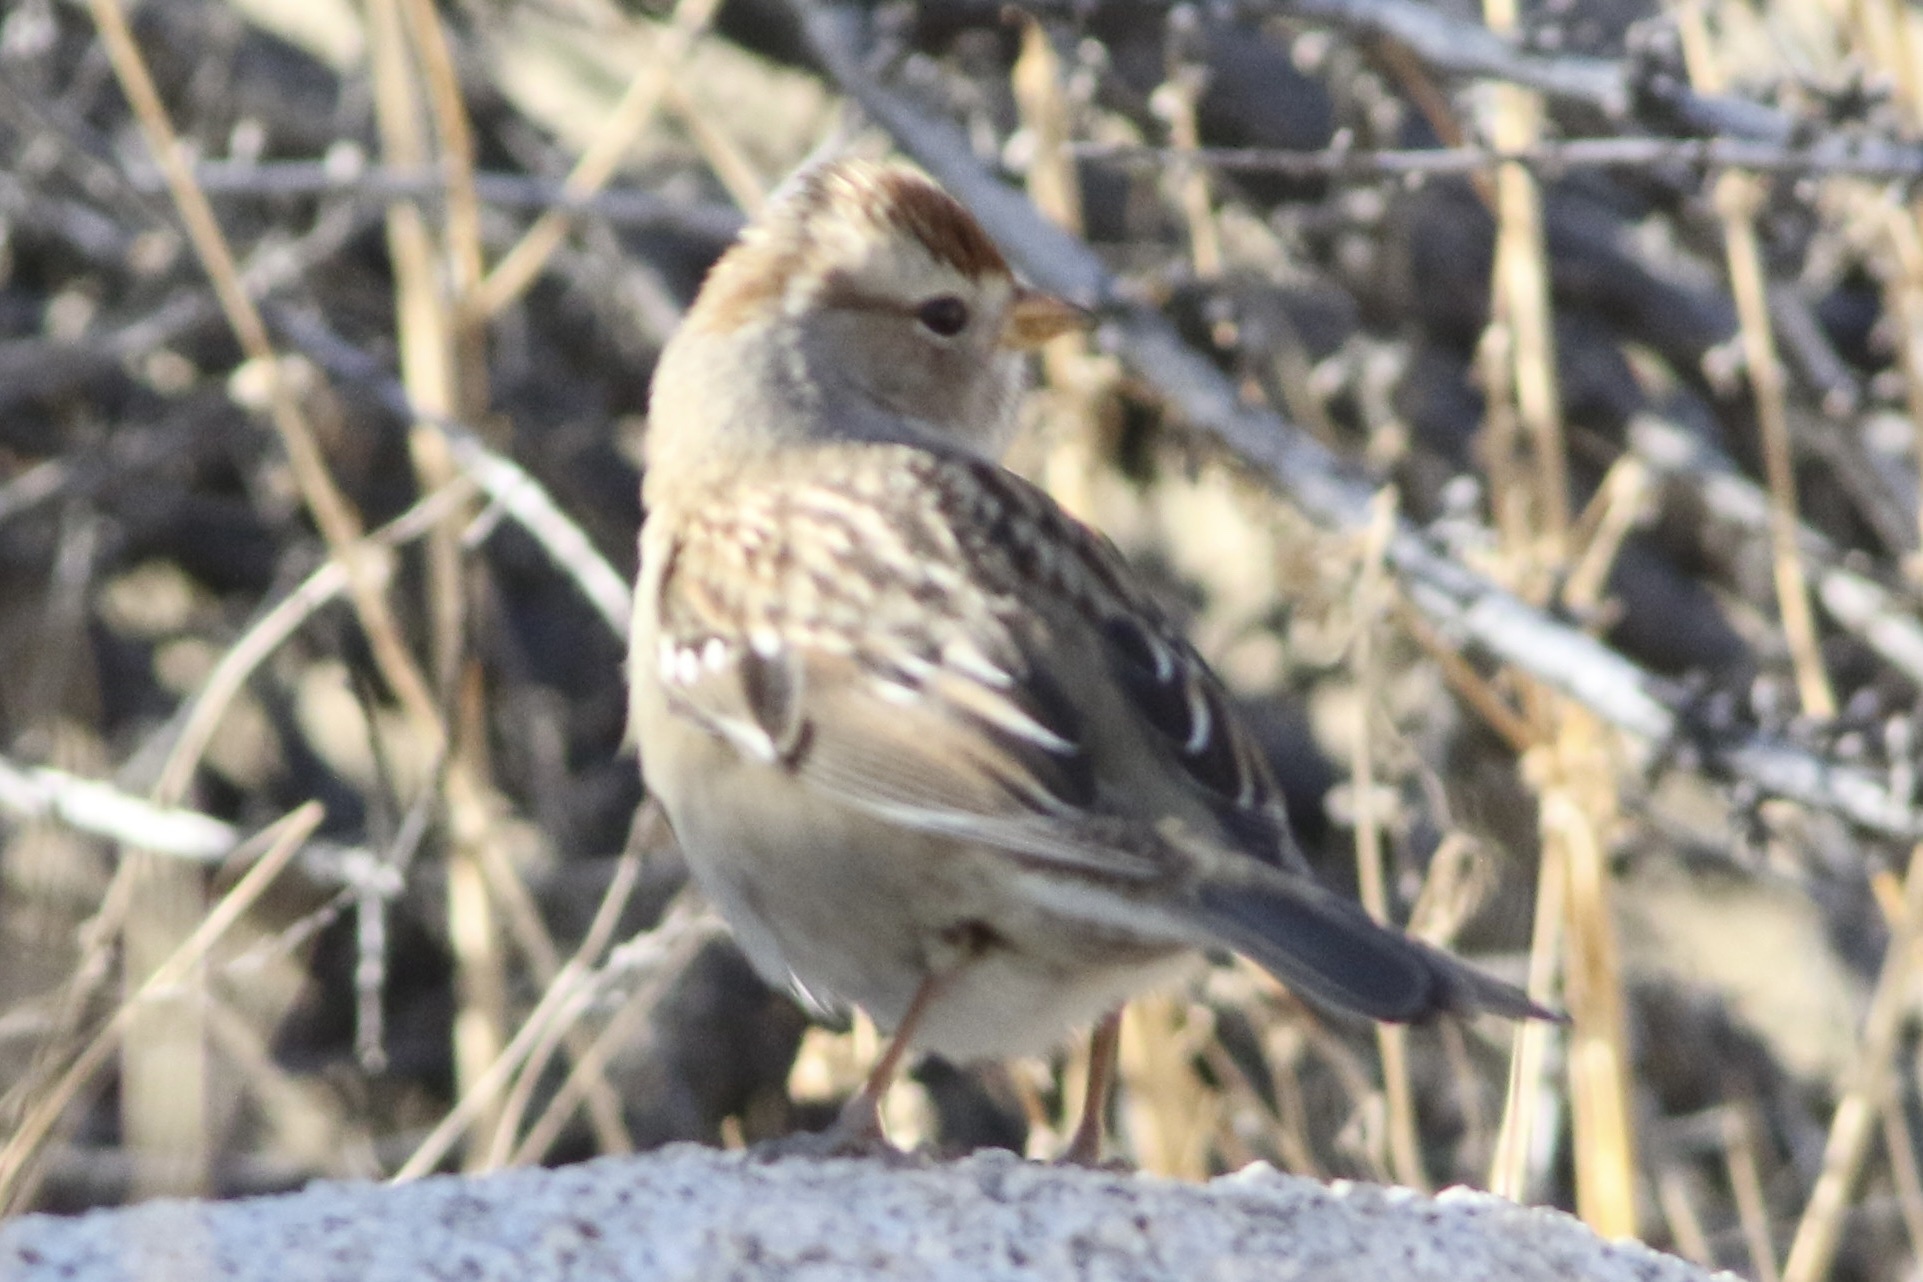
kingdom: Animalia
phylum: Chordata
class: Aves
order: Passeriformes
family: Passerellidae
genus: Zonotrichia
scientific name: Zonotrichia leucophrys
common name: White-crowned sparrow
